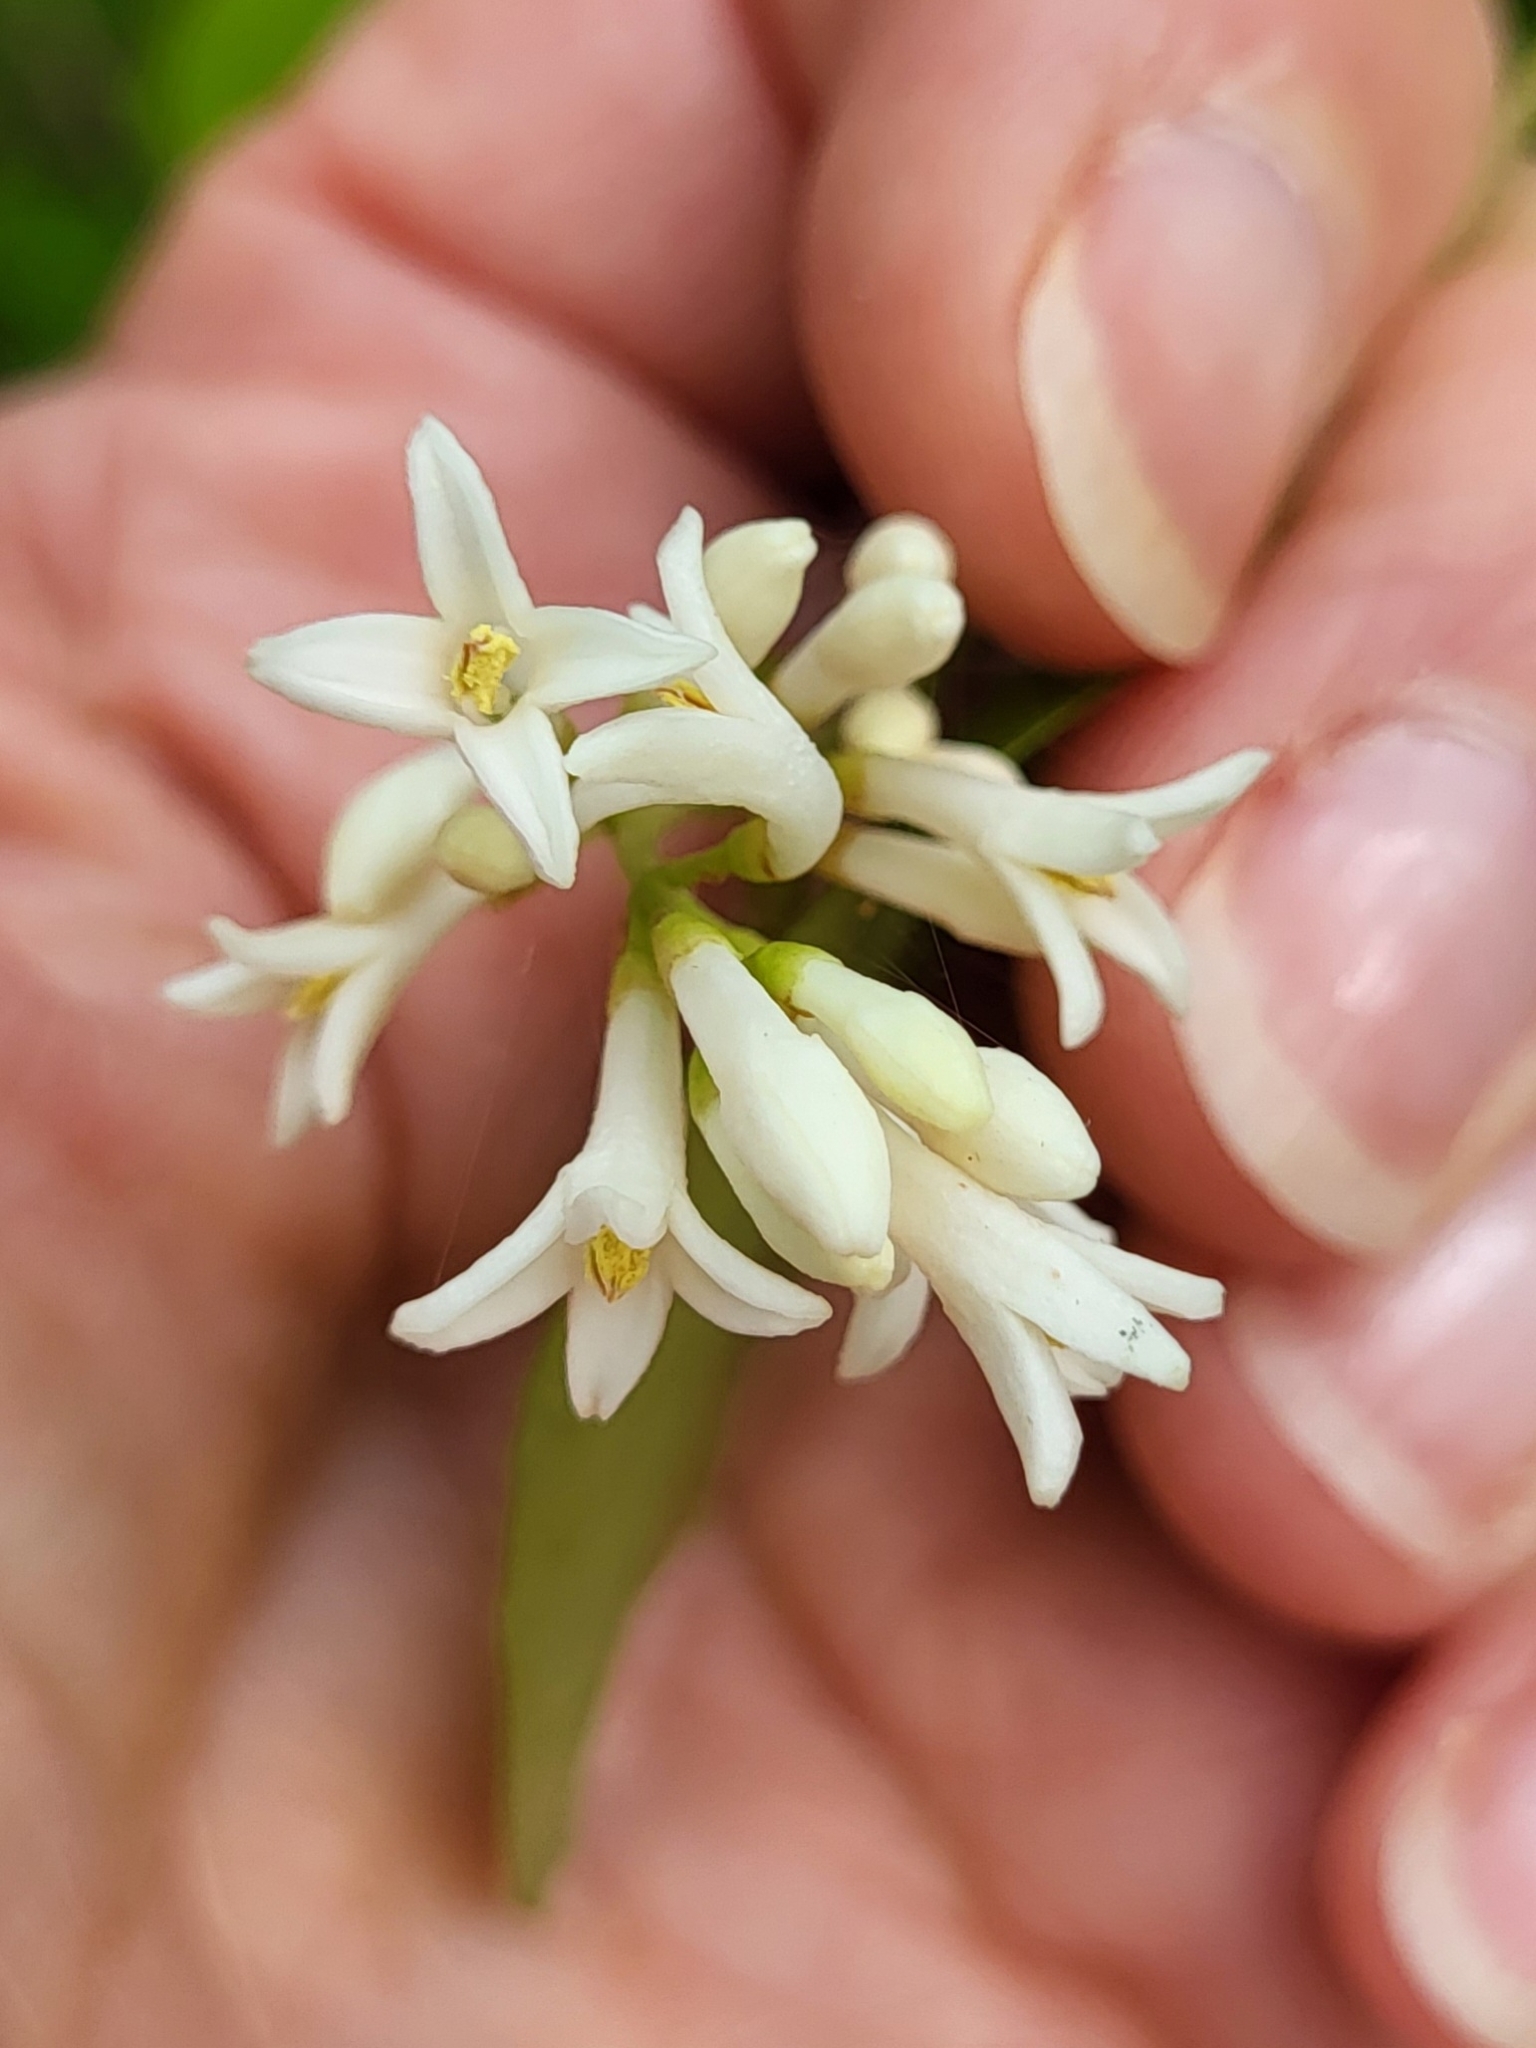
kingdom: Plantae
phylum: Tracheophyta
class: Magnoliopsida
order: Lamiales
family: Oleaceae
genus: Ligustrum
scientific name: Ligustrum obtusifolium
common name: Border privet
